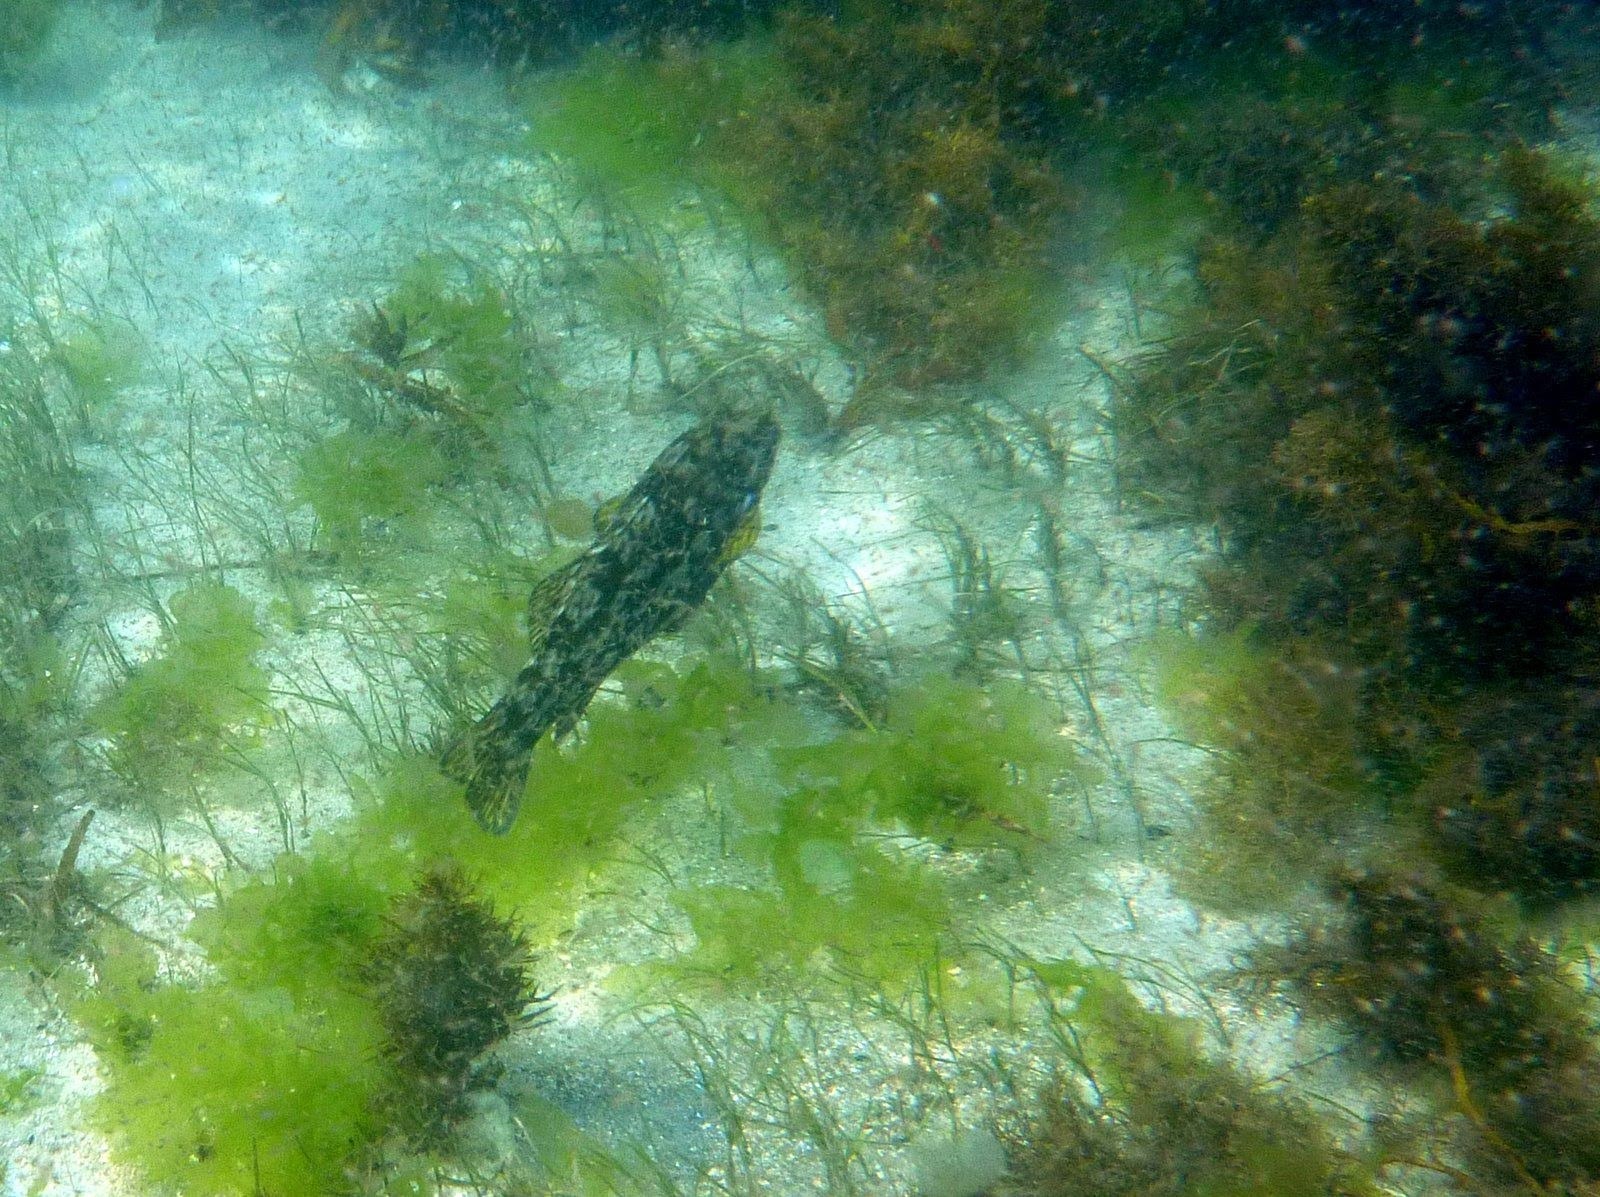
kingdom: Animalia
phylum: Chordata
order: Perciformes
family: Aplodactylidae
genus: Aplodactylus
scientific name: Aplodactylus arctidens
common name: Marblefish
